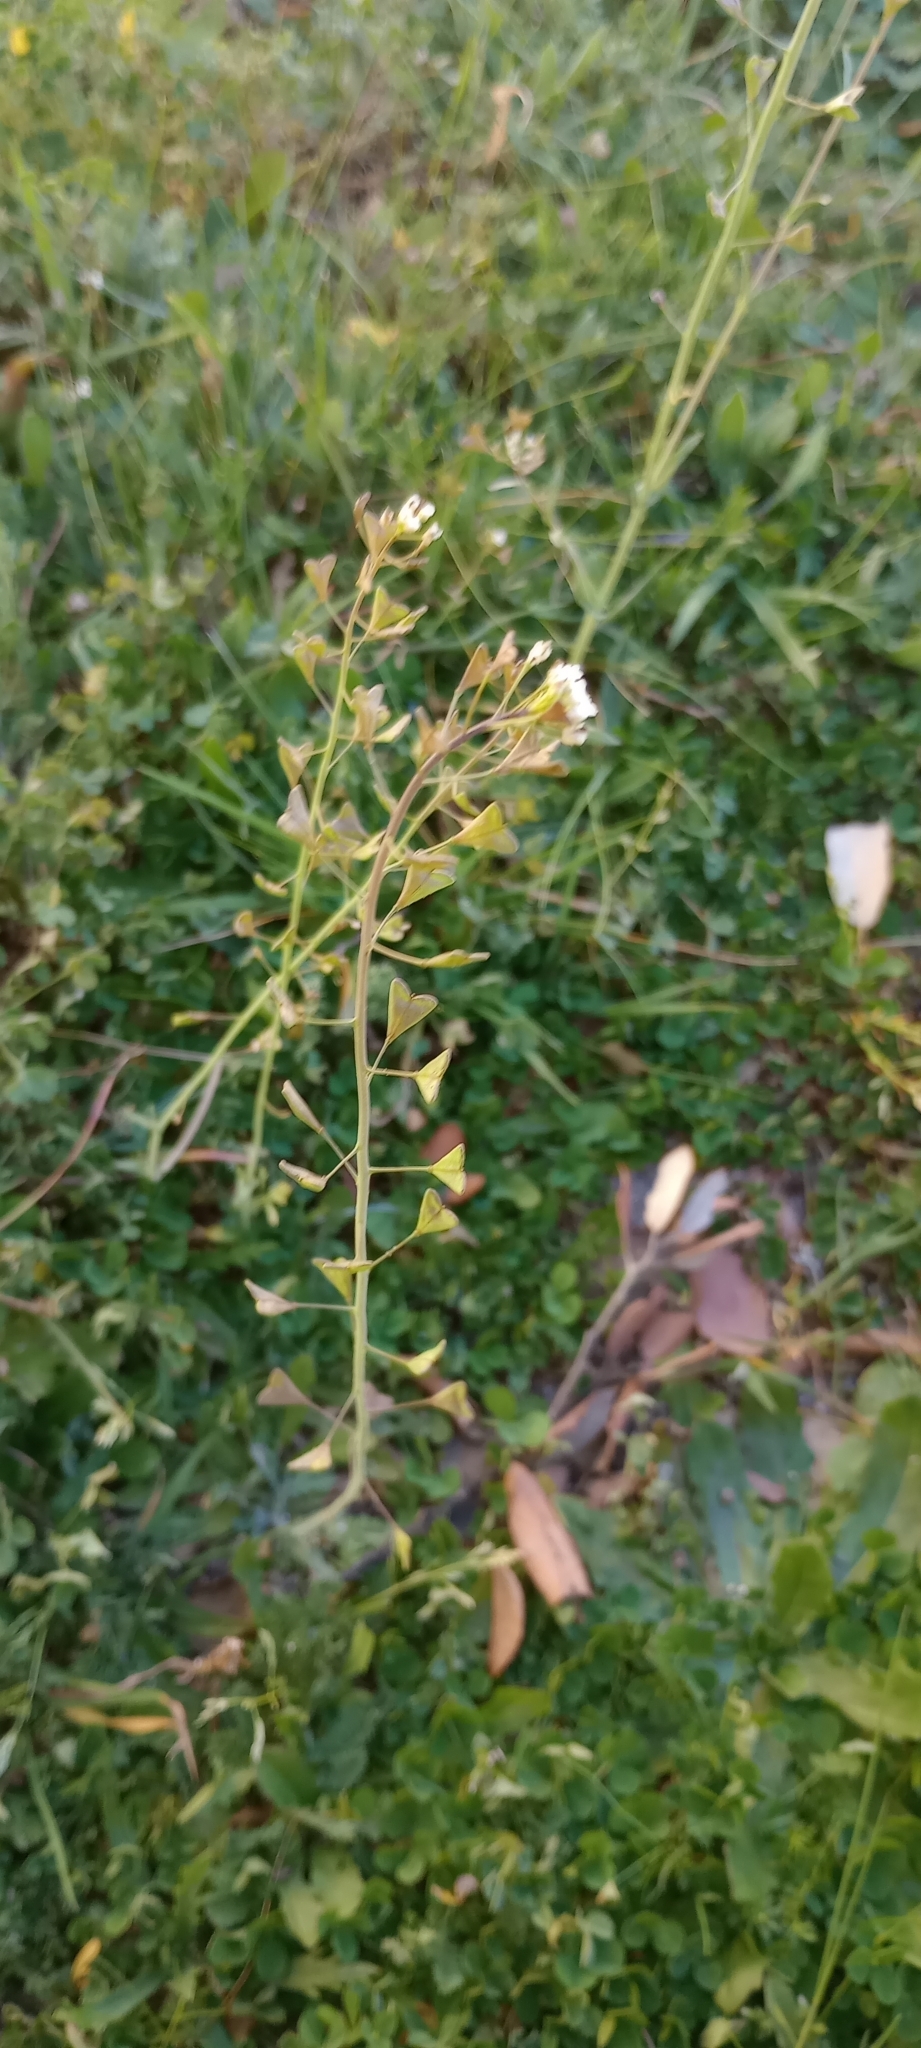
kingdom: Plantae
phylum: Tracheophyta
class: Magnoliopsida
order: Brassicales
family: Brassicaceae
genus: Capsella
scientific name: Capsella bursa-pastoris
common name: Shepherd's purse
